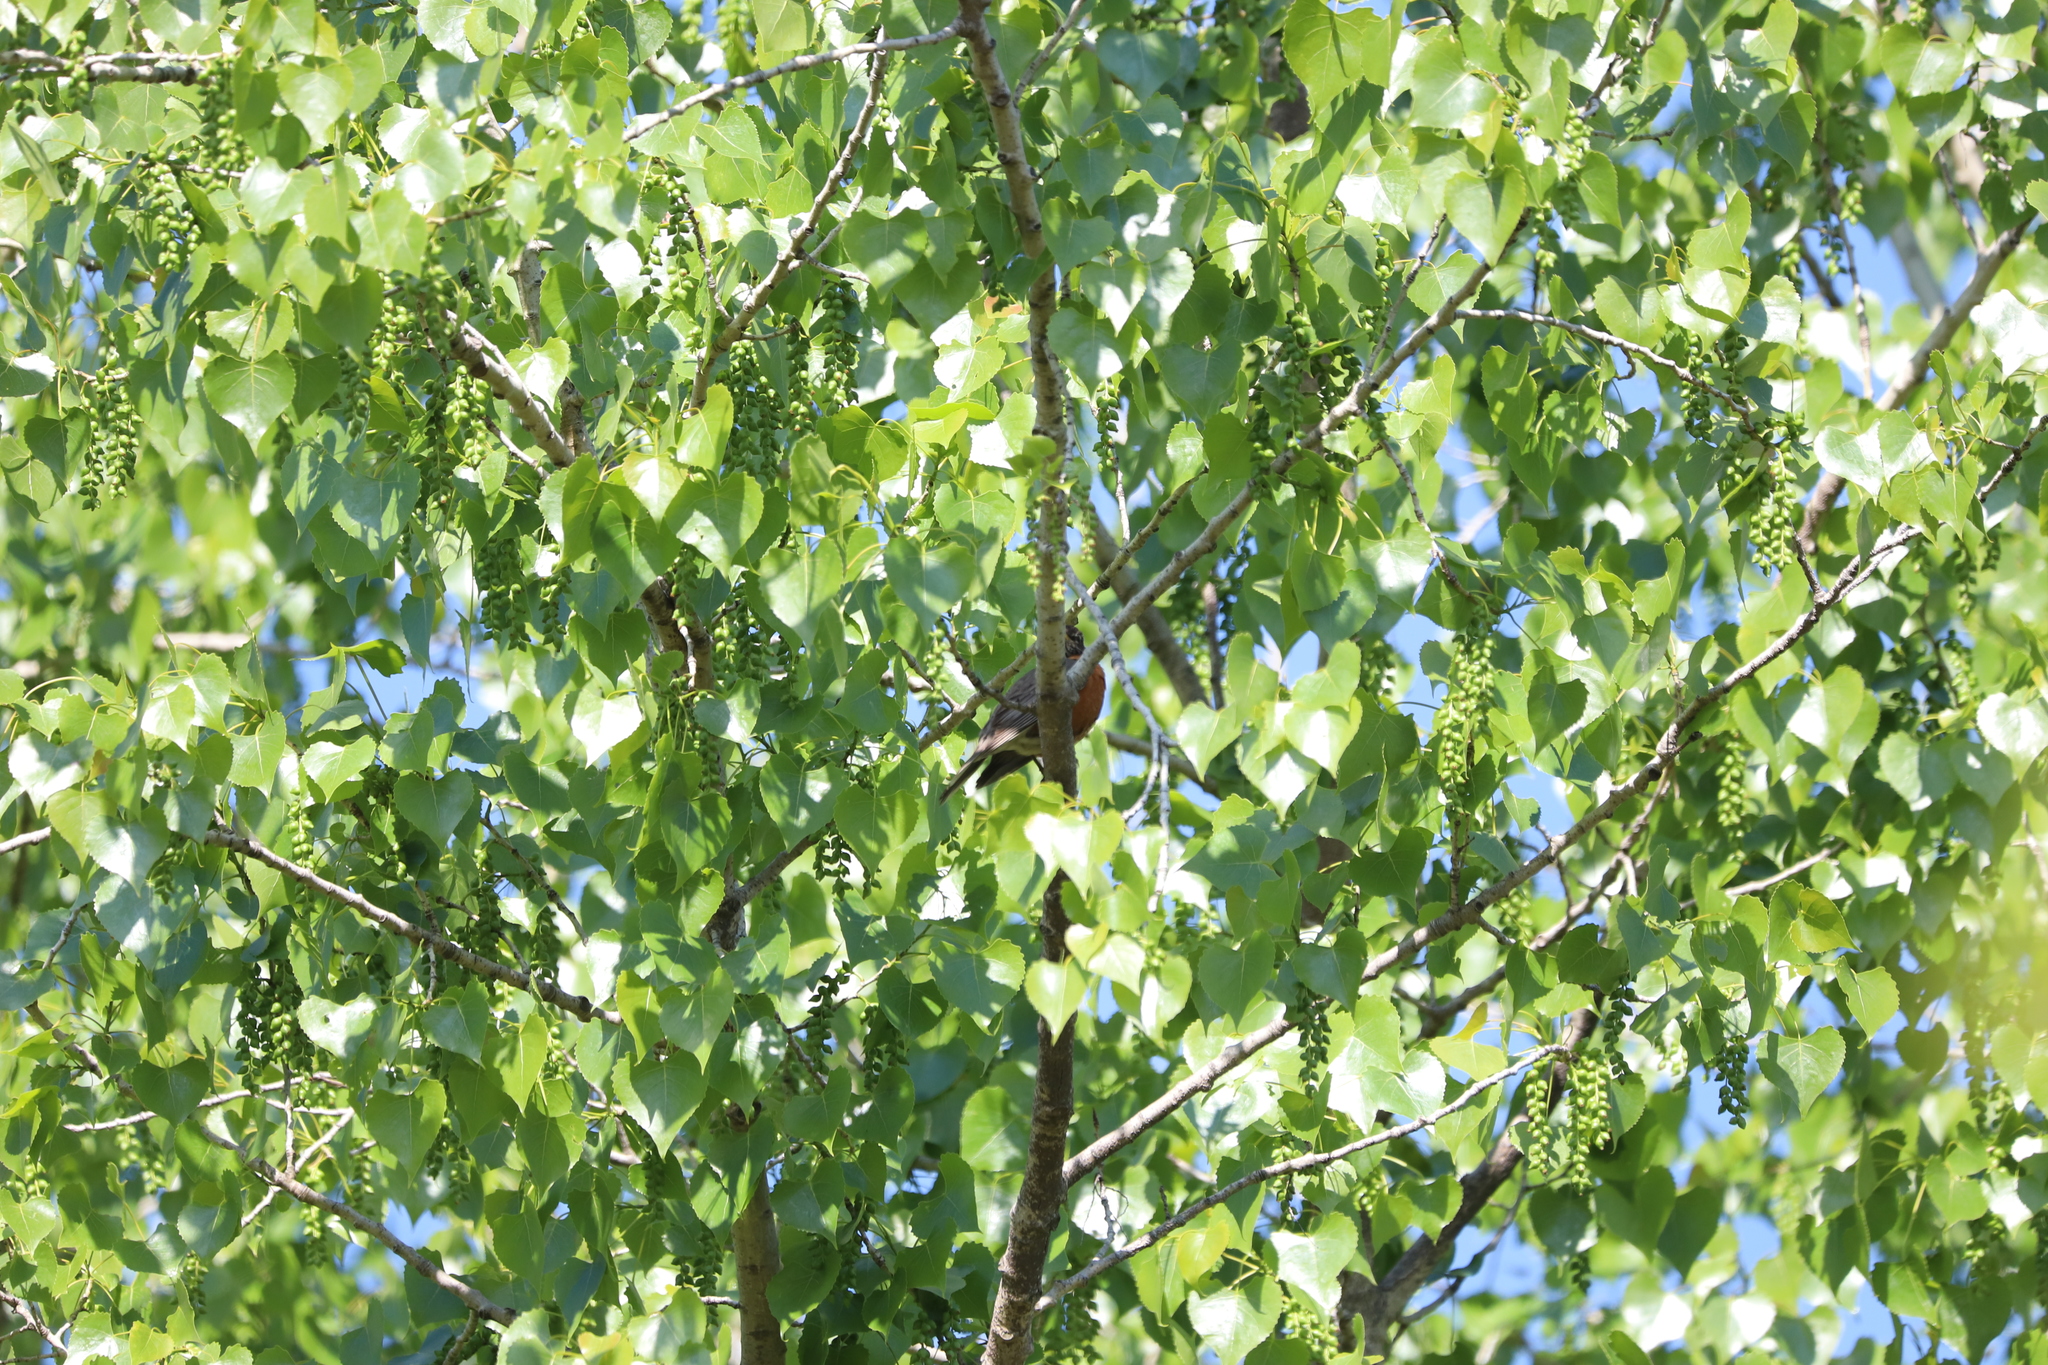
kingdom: Plantae
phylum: Tracheophyta
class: Magnoliopsida
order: Malpighiales
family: Salicaceae
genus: Populus
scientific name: Populus deltoides
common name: Eastern cottonwood
